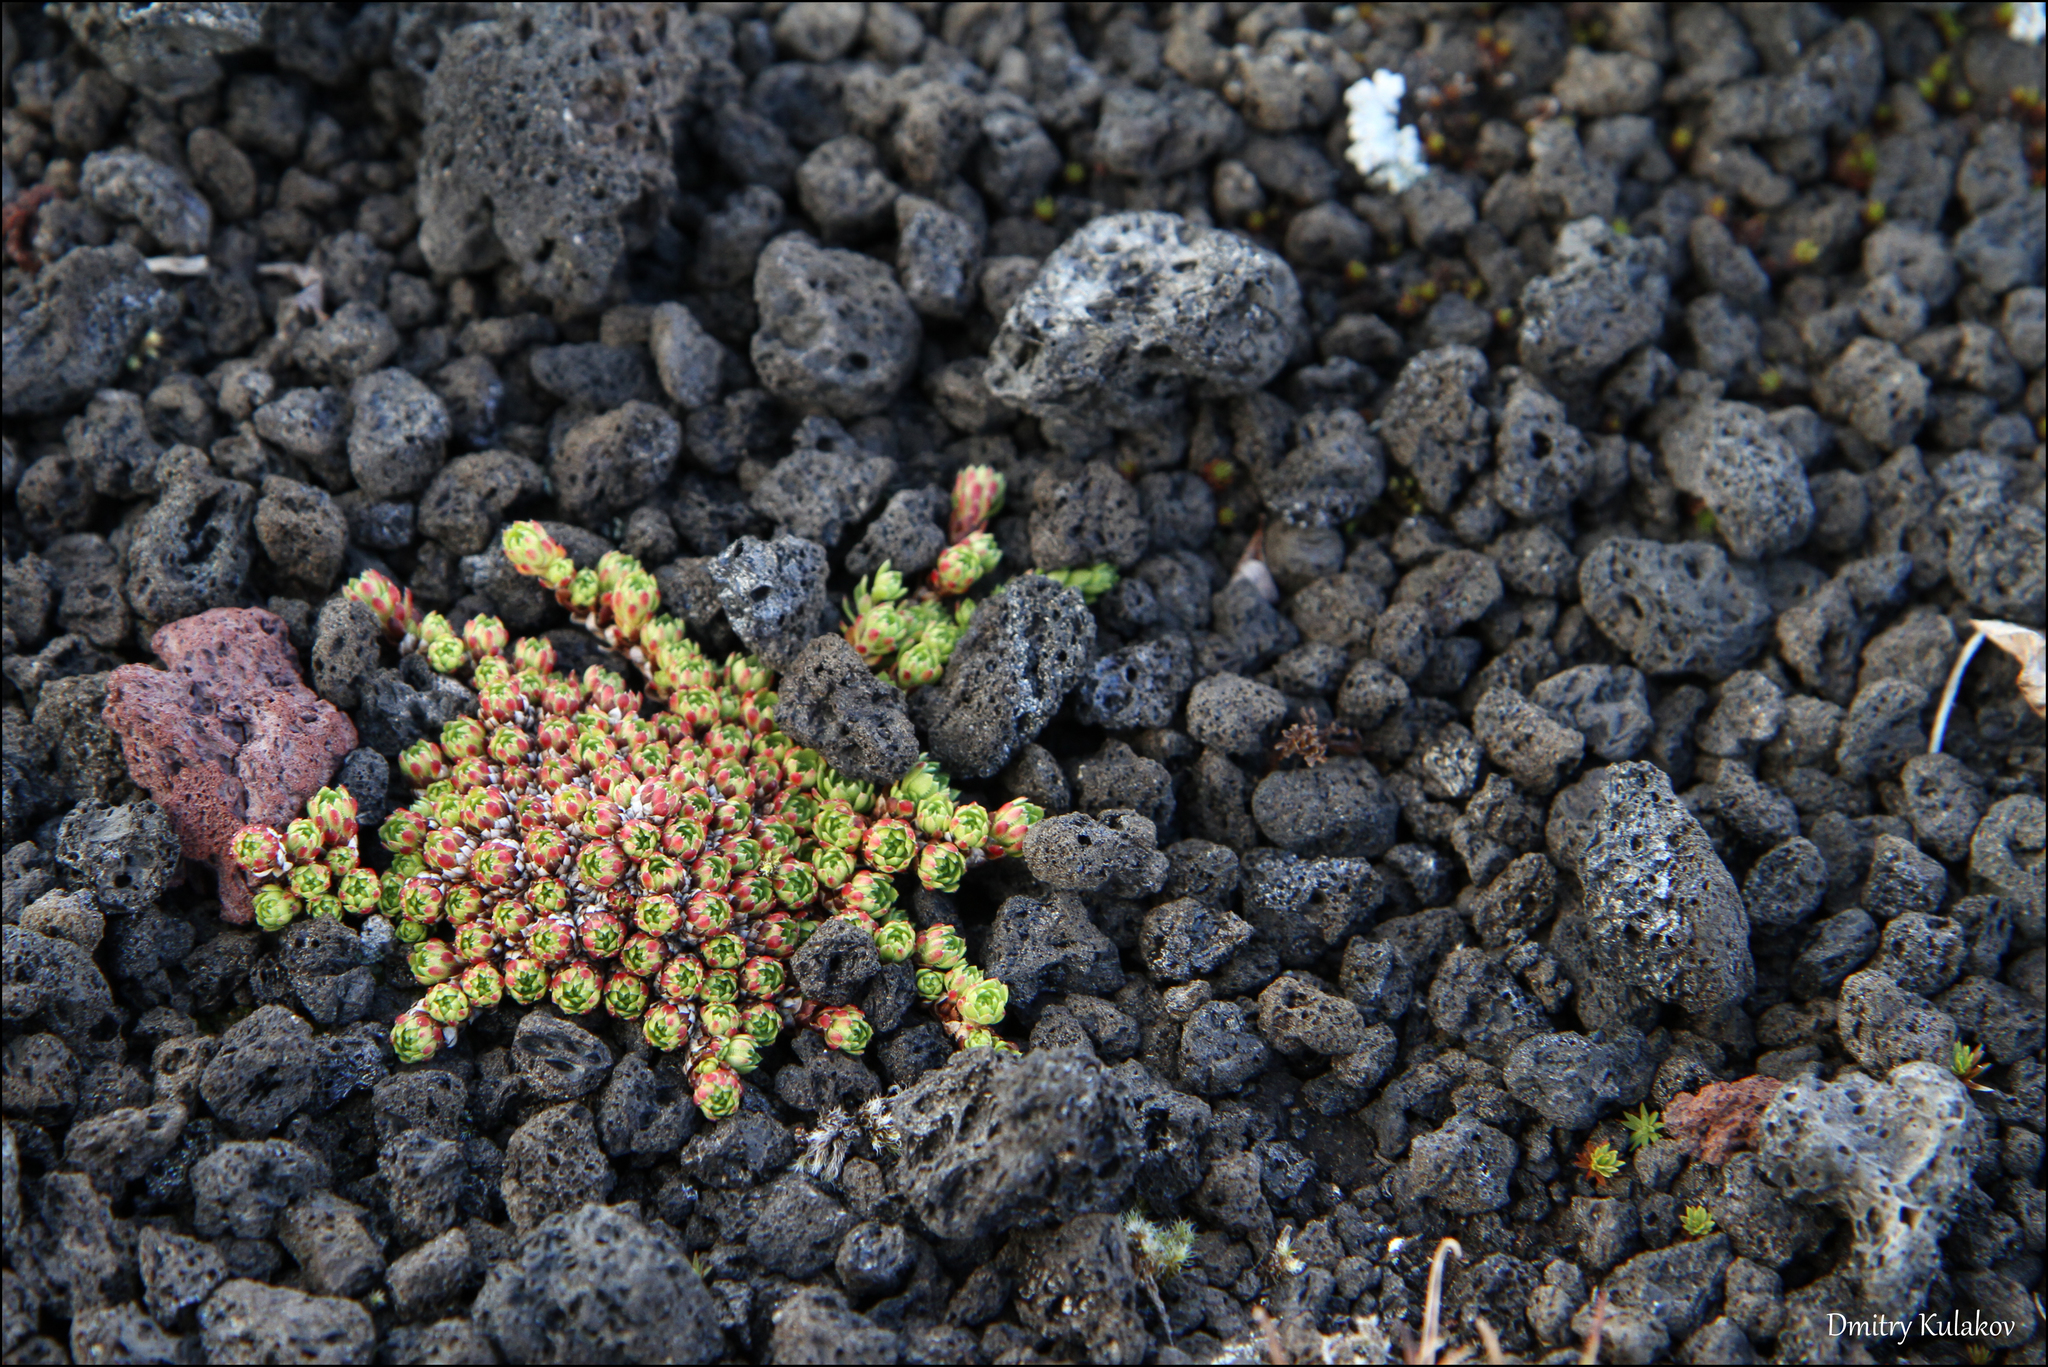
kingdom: Plantae
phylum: Tracheophyta
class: Magnoliopsida
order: Saxifragales
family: Saxifragaceae
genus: Saxifraga
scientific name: Saxifraga bronchialis
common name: Matted saxifrage
